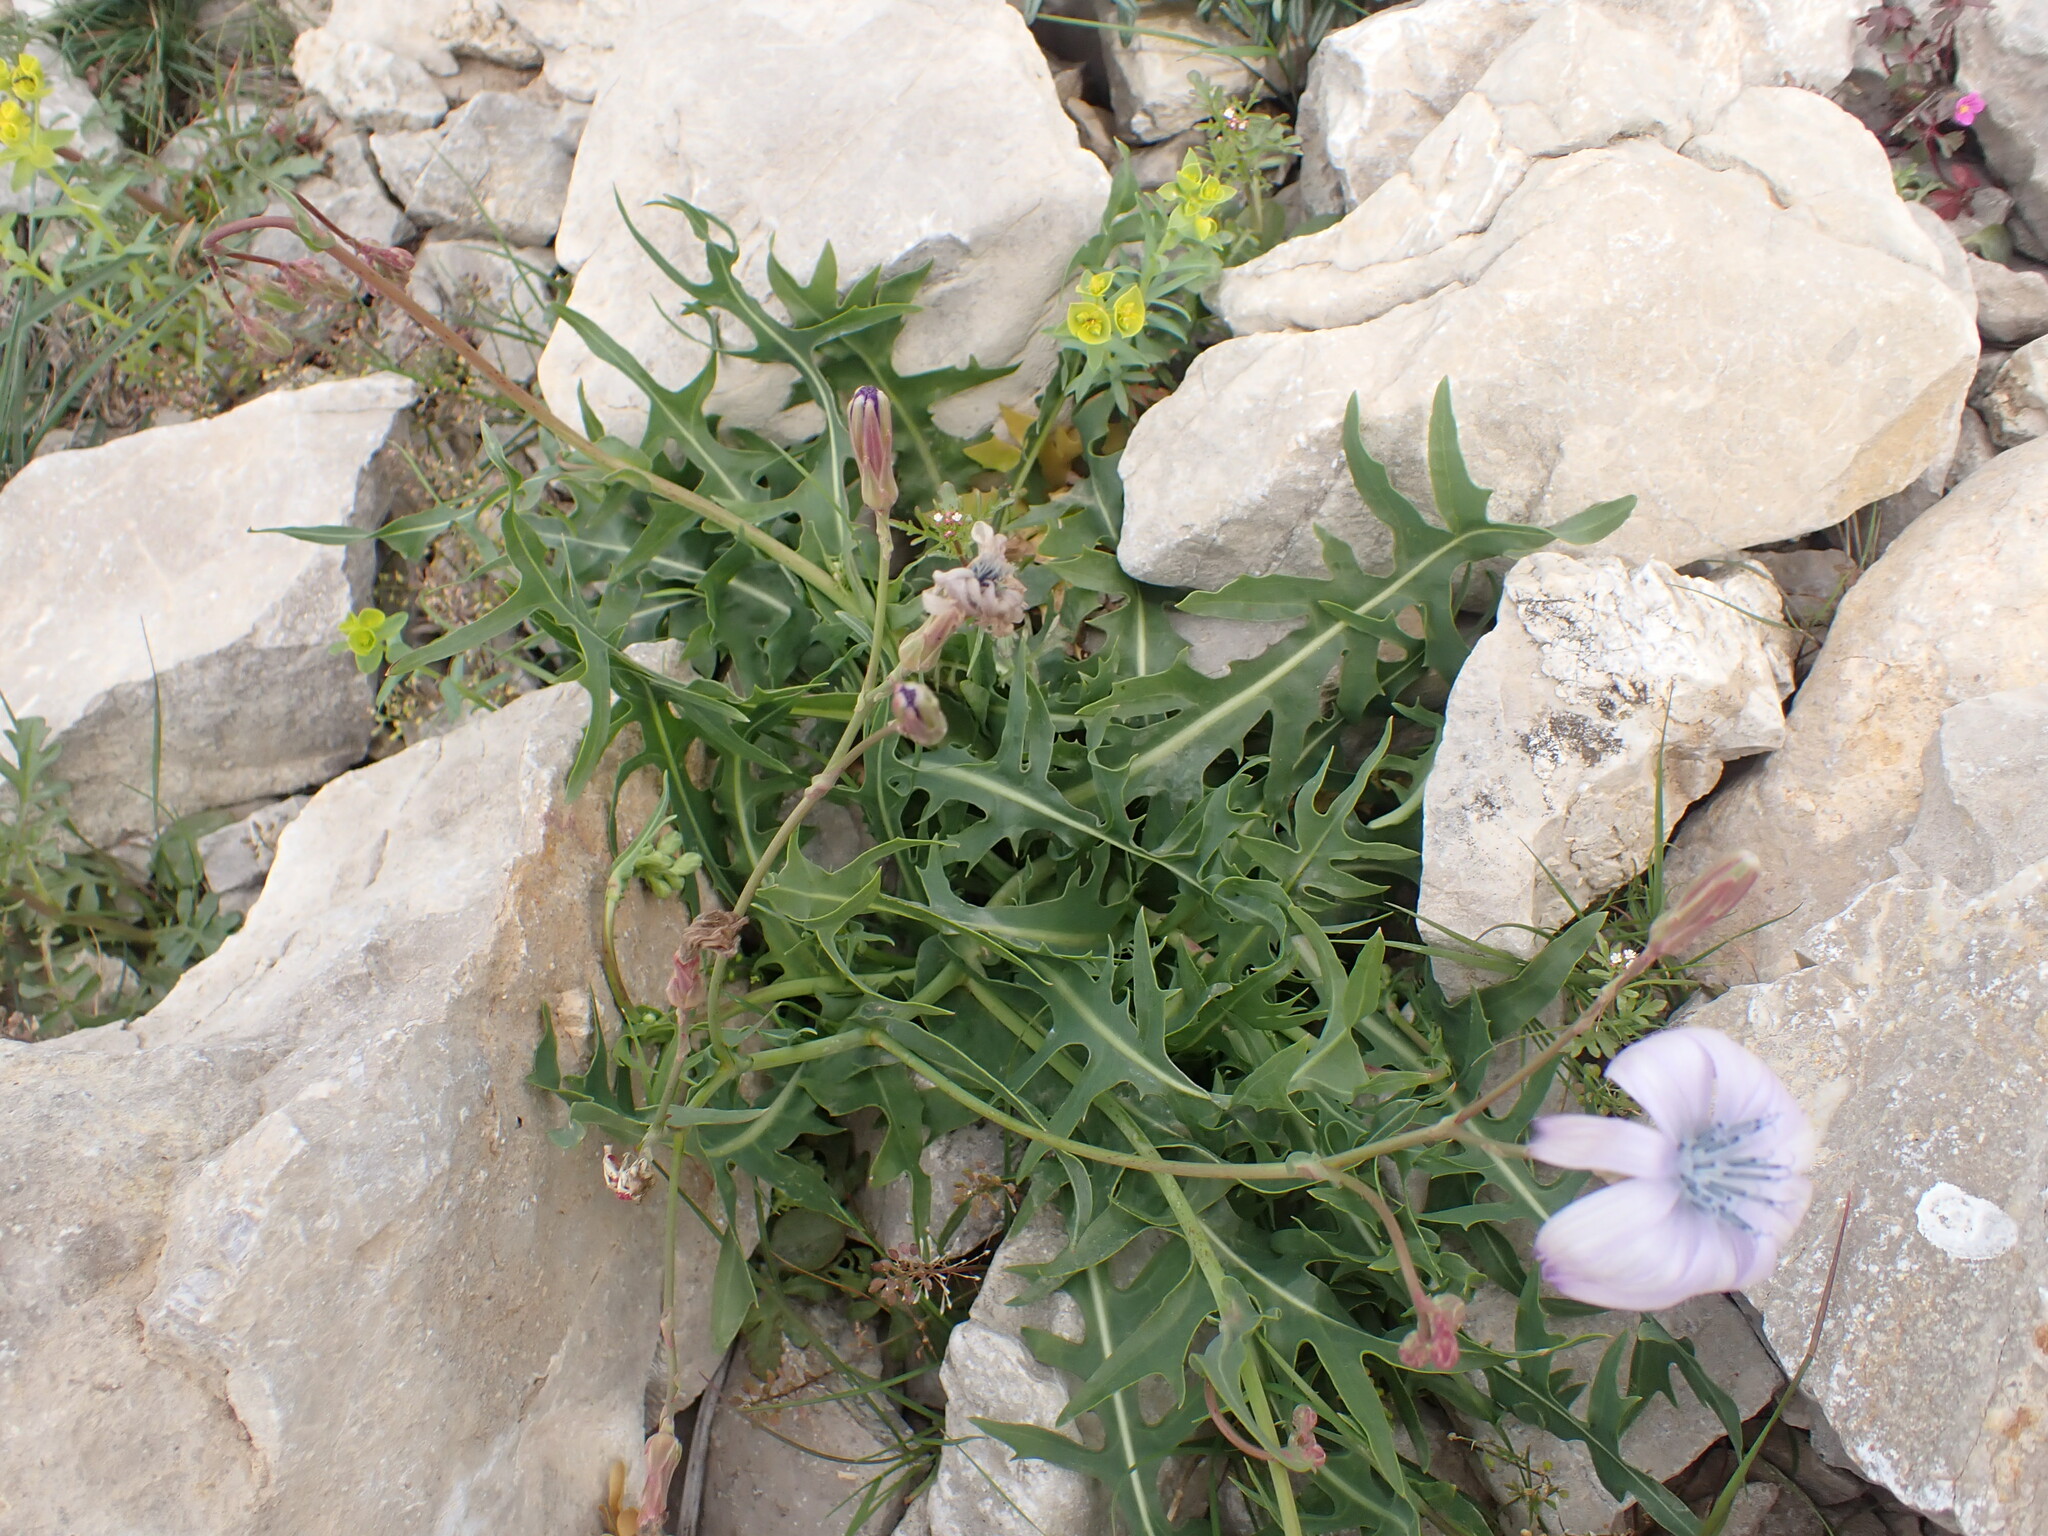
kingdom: Plantae
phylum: Tracheophyta
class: Magnoliopsida
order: Asterales
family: Asteraceae
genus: Lactuca
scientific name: Lactuca perennis
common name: Mountain lettuce
